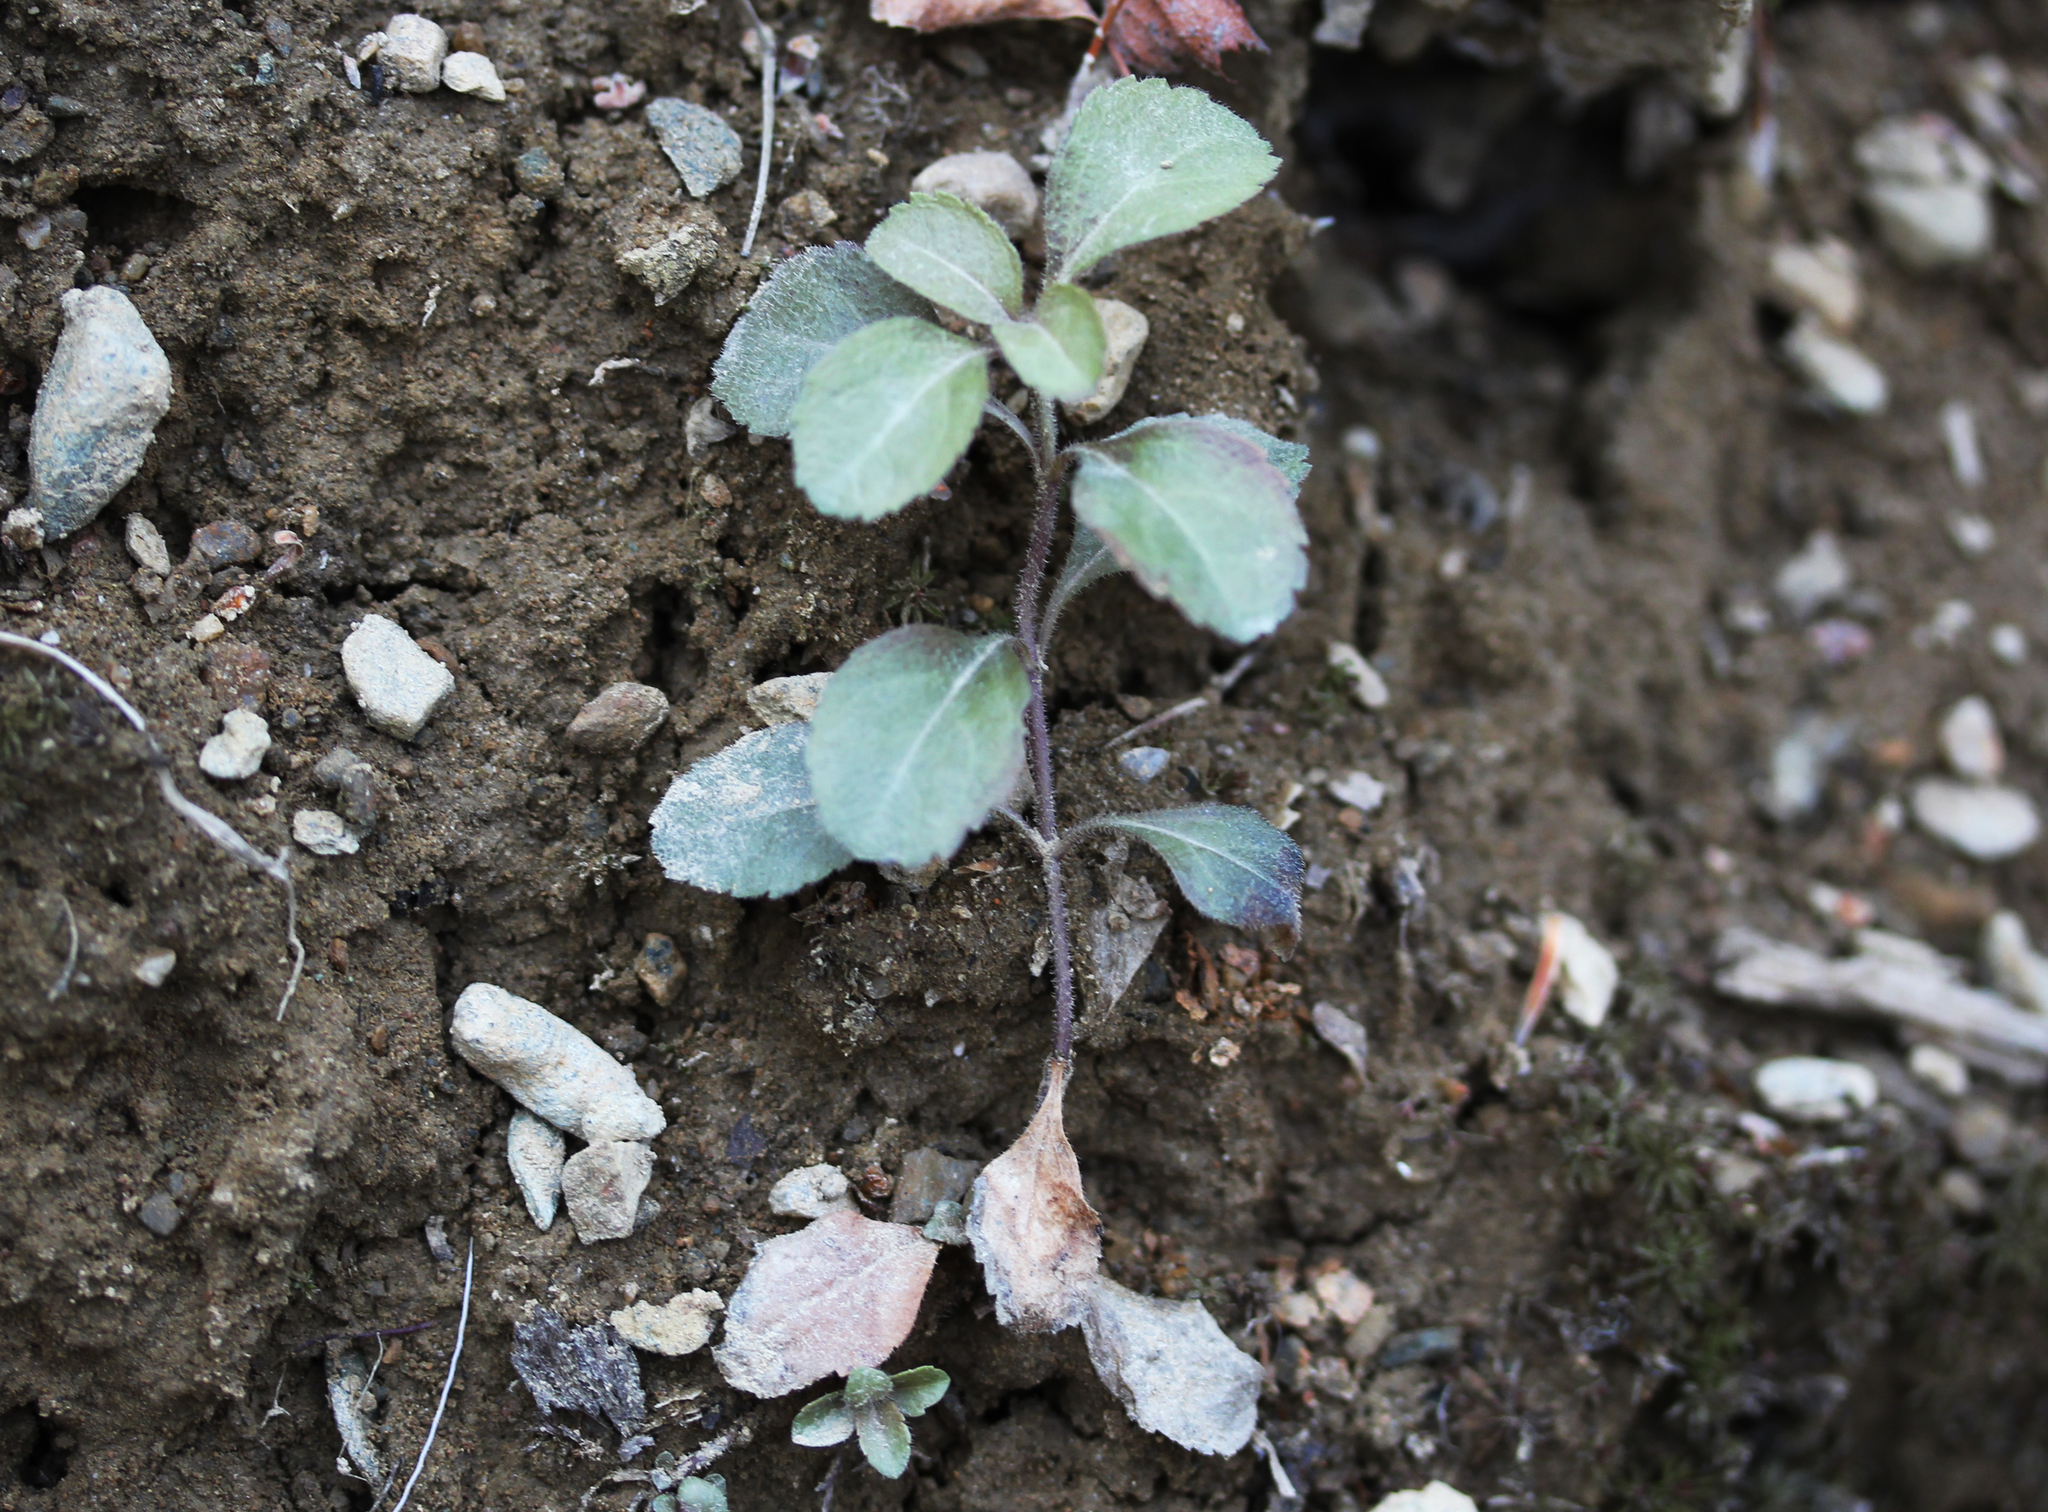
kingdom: Plantae
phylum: Tracheophyta
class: Magnoliopsida
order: Lamiales
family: Plantaginaceae
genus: Veronica
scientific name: Veronica officinalis
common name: Common speedwell
